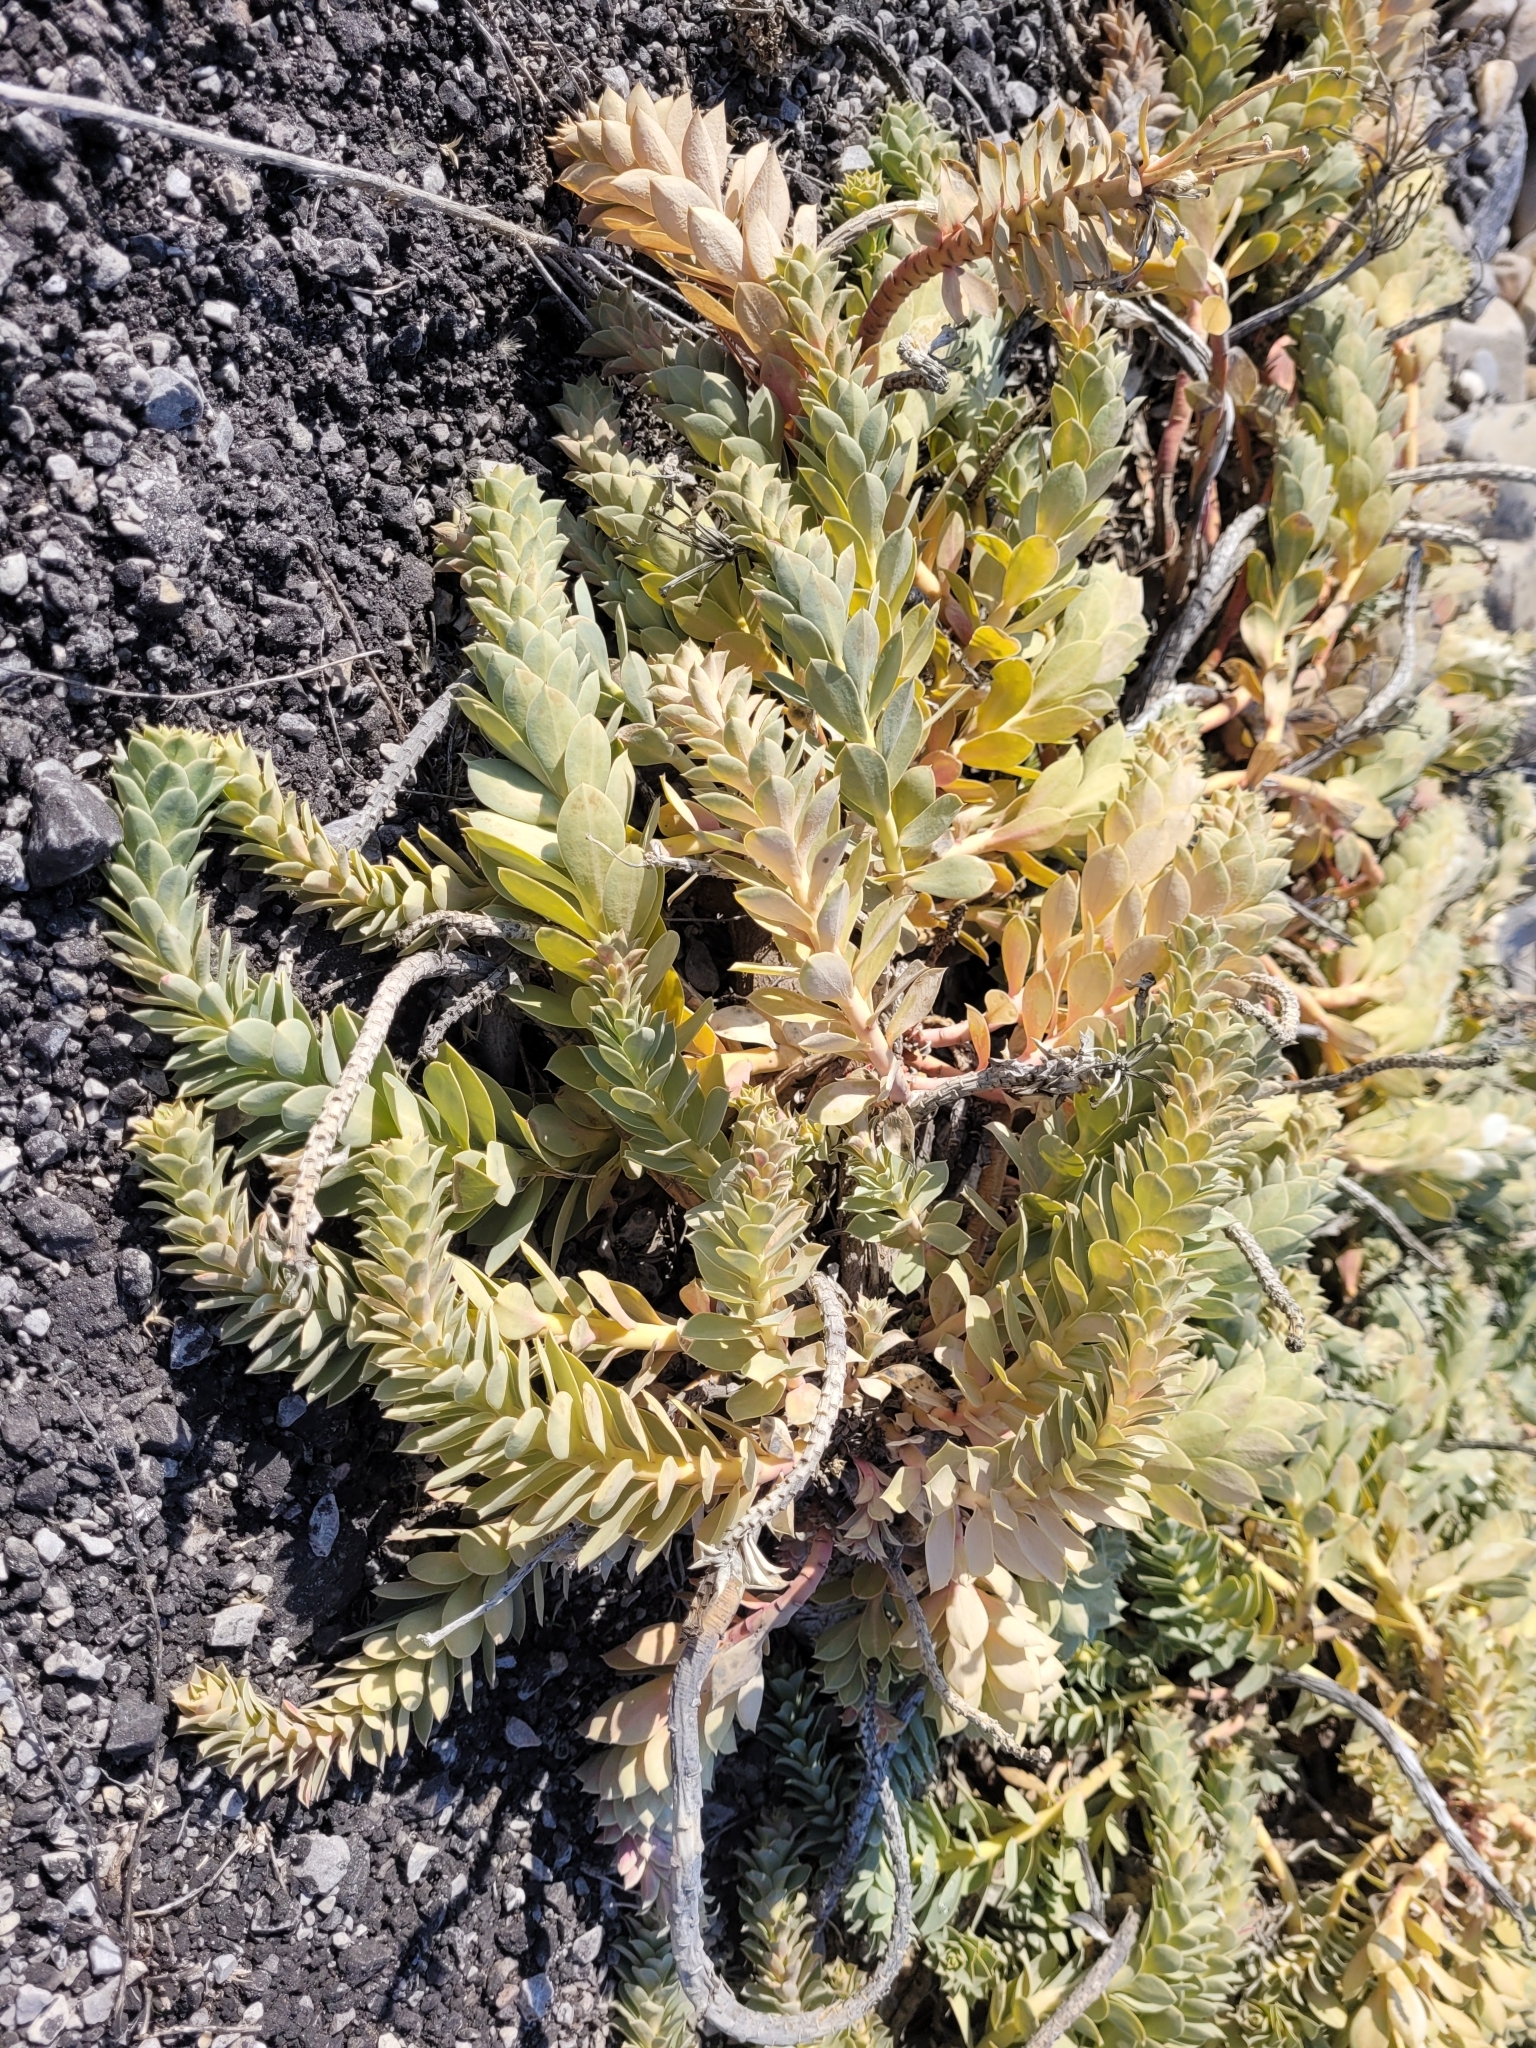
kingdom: Plantae
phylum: Tracheophyta
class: Magnoliopsida
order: Malpighiales
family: Euphorbiaceae
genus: Euphorbia
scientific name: Euphorbia myrsinites
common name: Myrtle spurge
